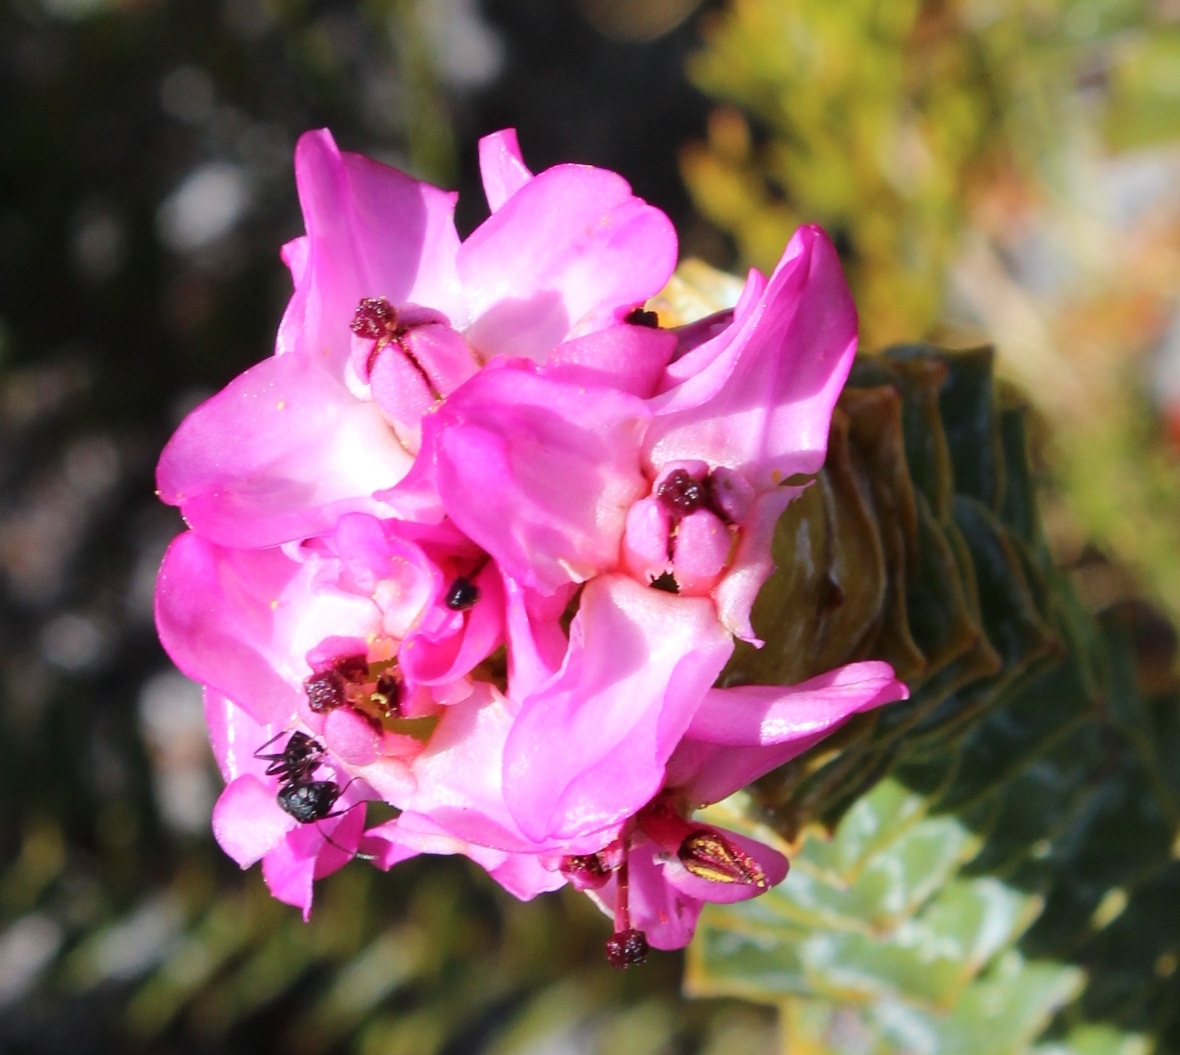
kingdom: Plantae
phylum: Tracheophyta
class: Magnoliopsida
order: Myrtales
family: Penaeaceae
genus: Saltera
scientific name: Saltera sarcocolla
